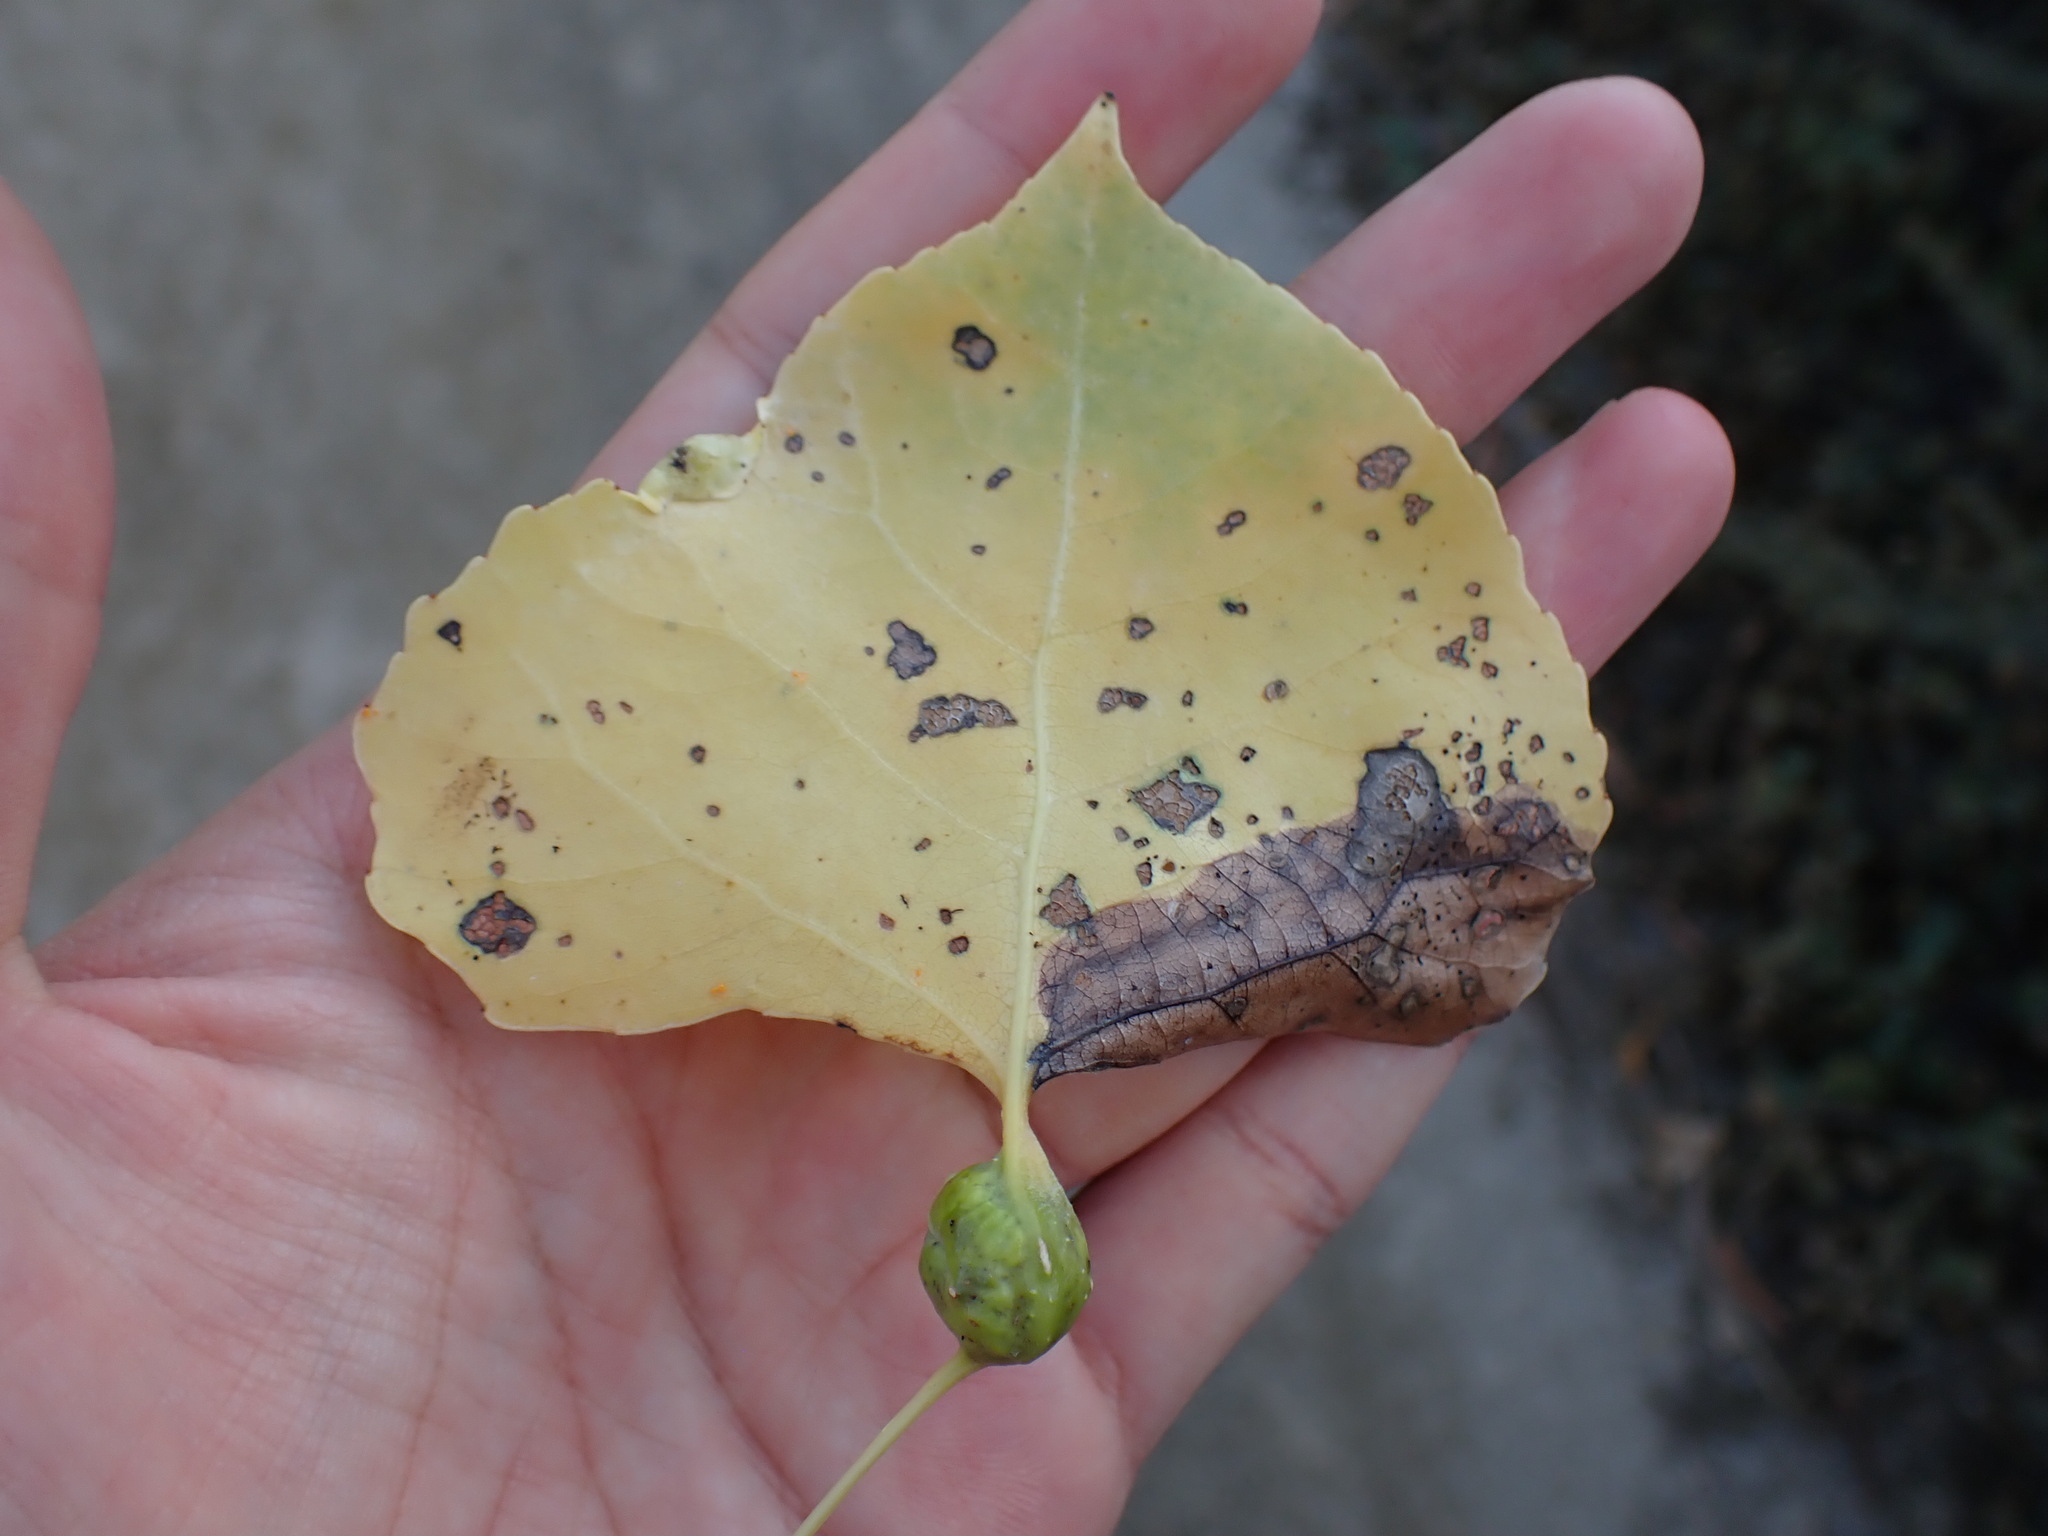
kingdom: Animalia
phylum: Arthropoda
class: Insecta
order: Hemiptera
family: Aphididae
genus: Pemphigus
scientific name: Pemphigus obesinymphae
